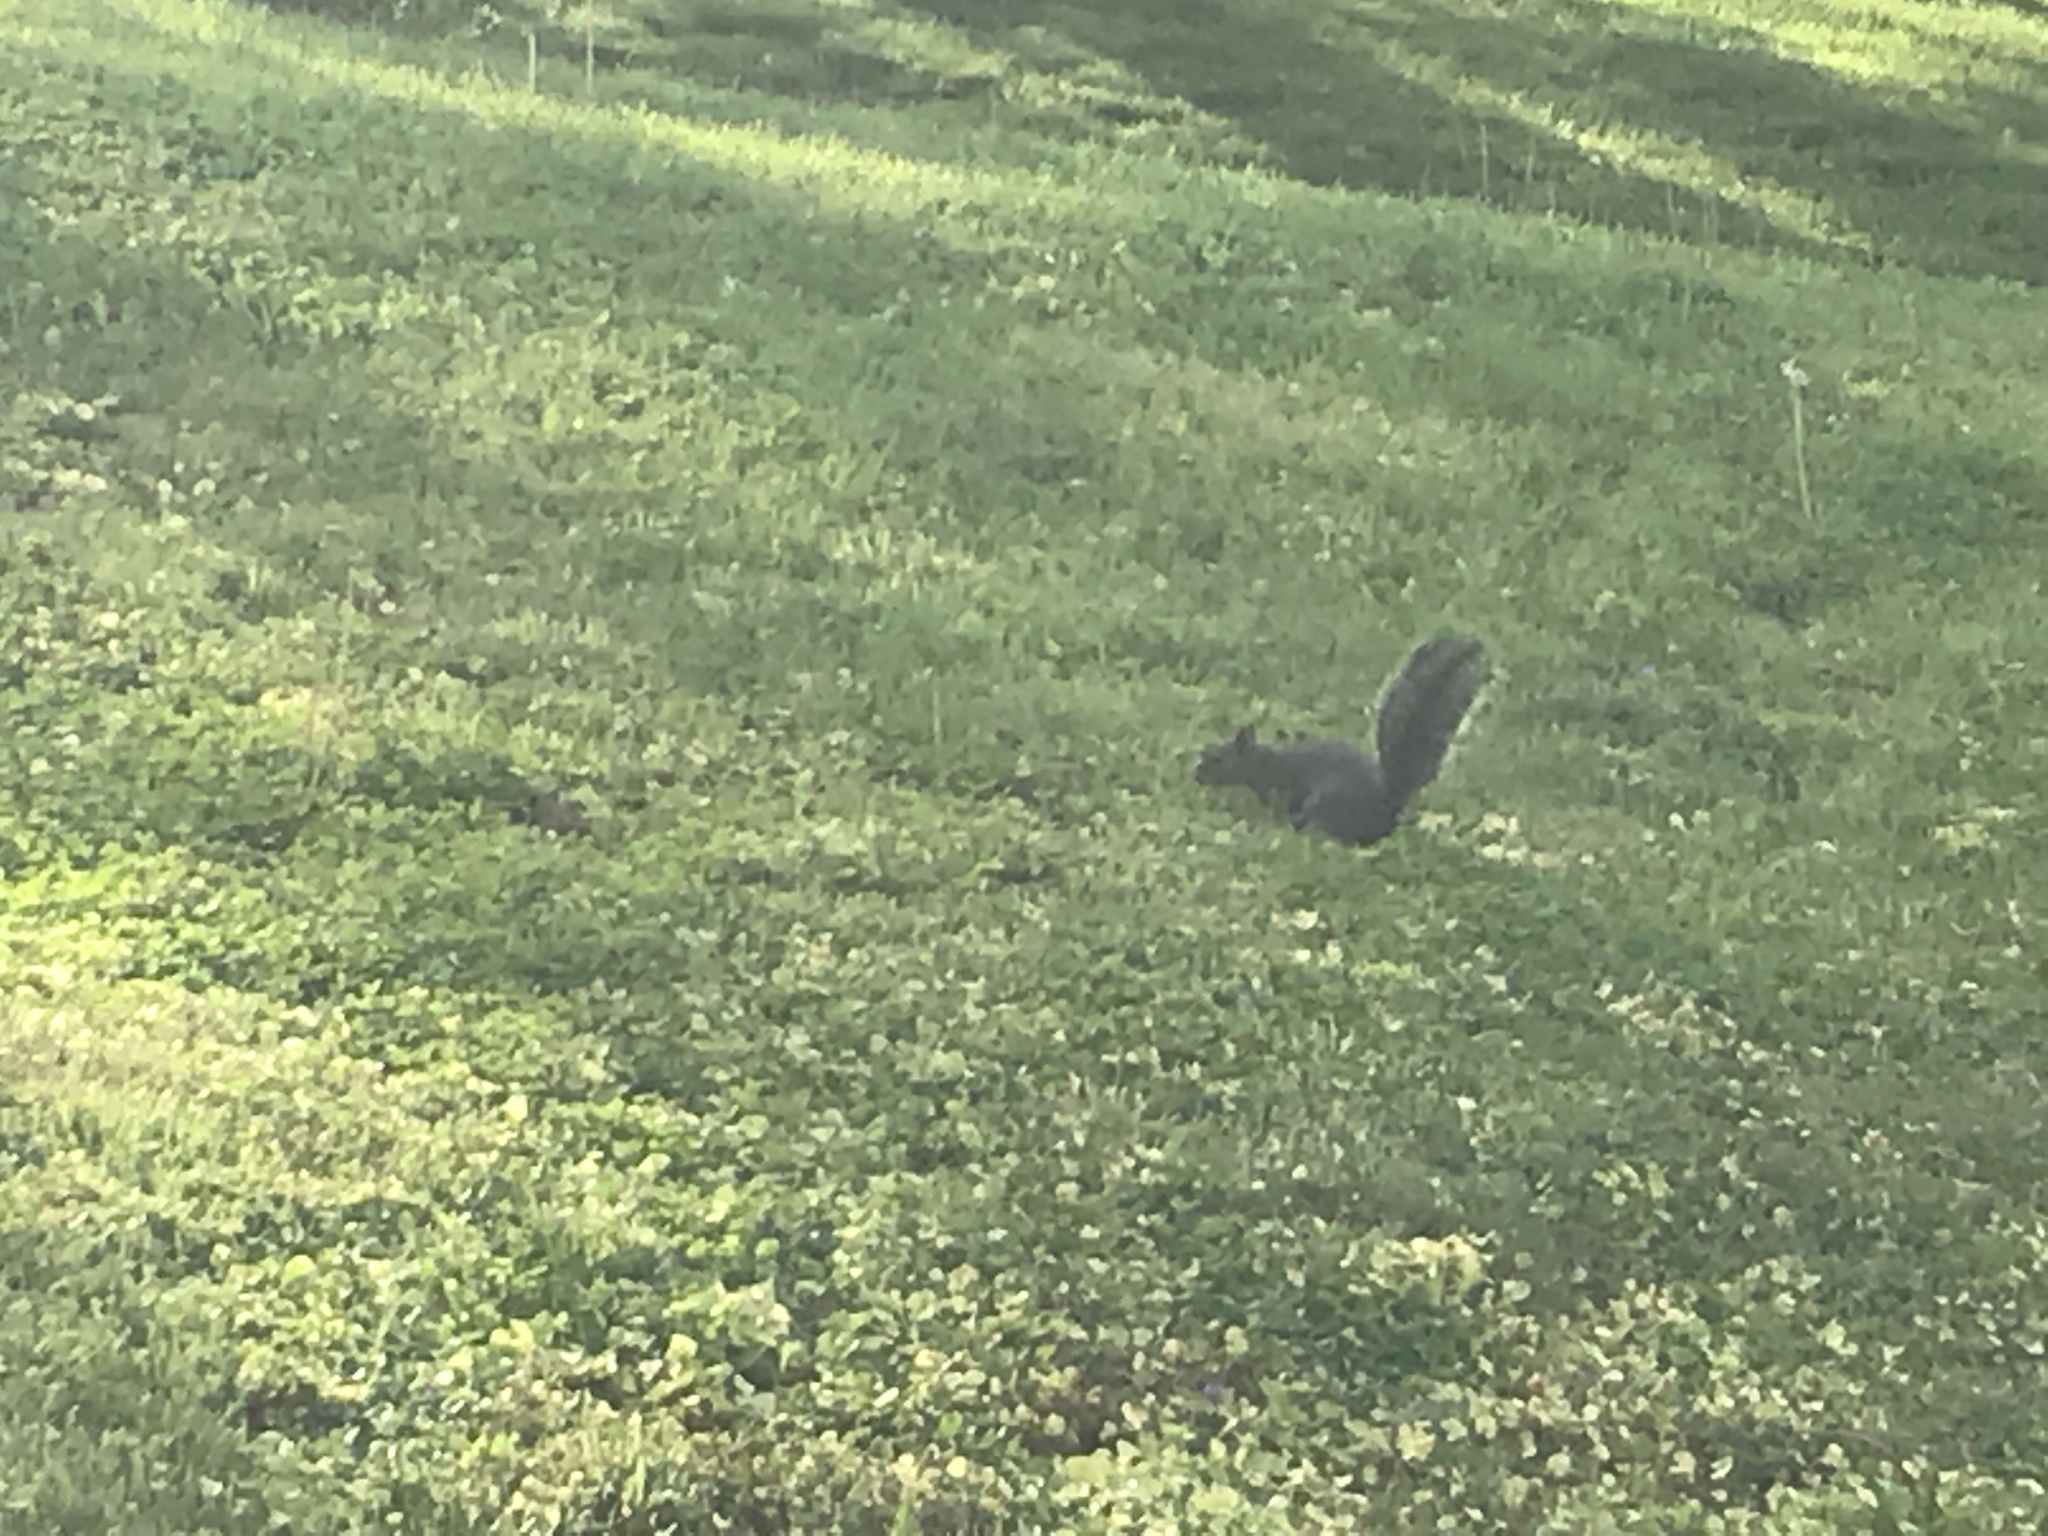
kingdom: Animalia
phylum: Chordata
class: Mammalia
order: Rodentia
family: Sciuridae
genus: Sciurus
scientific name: Sciurus carolinensis
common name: Eastern gray squirrel
